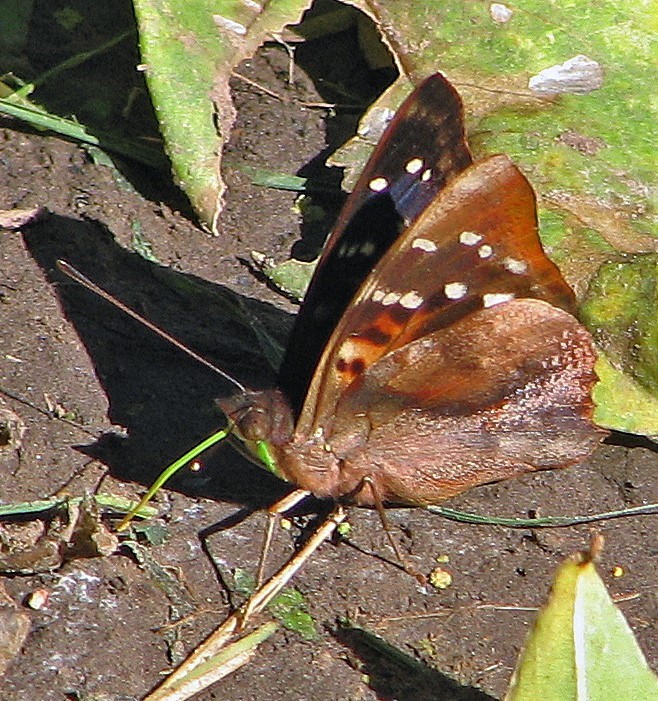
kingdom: Animalia
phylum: Arthropoda
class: Insecta
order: Lepidoptera
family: Nymphalidae
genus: Doxocopa
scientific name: Doxocopa kallina
